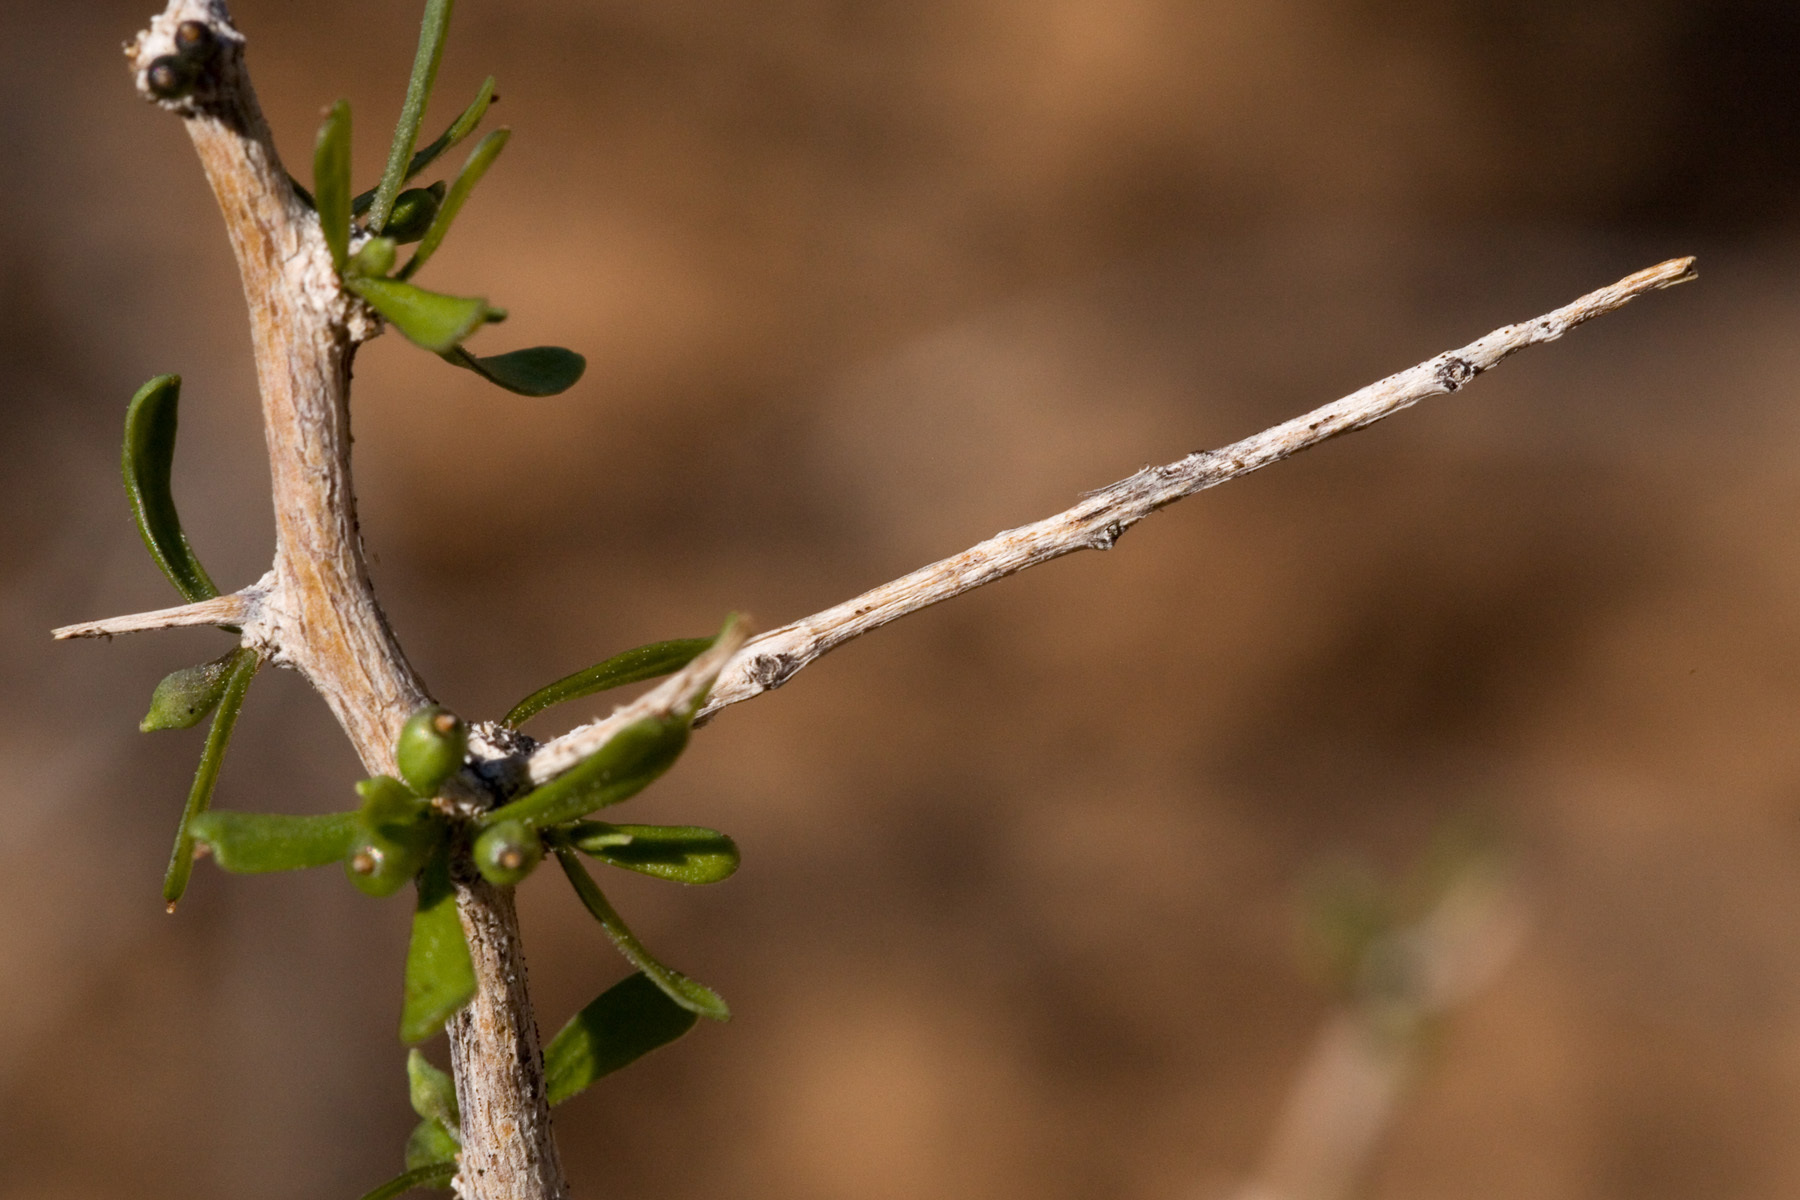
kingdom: Plantae
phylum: Tracheophyta
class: Magnoliopsida
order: Solanales
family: Solanaceae
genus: Lycium
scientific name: Lycium berlandieri
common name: Berlandier wolfberry
